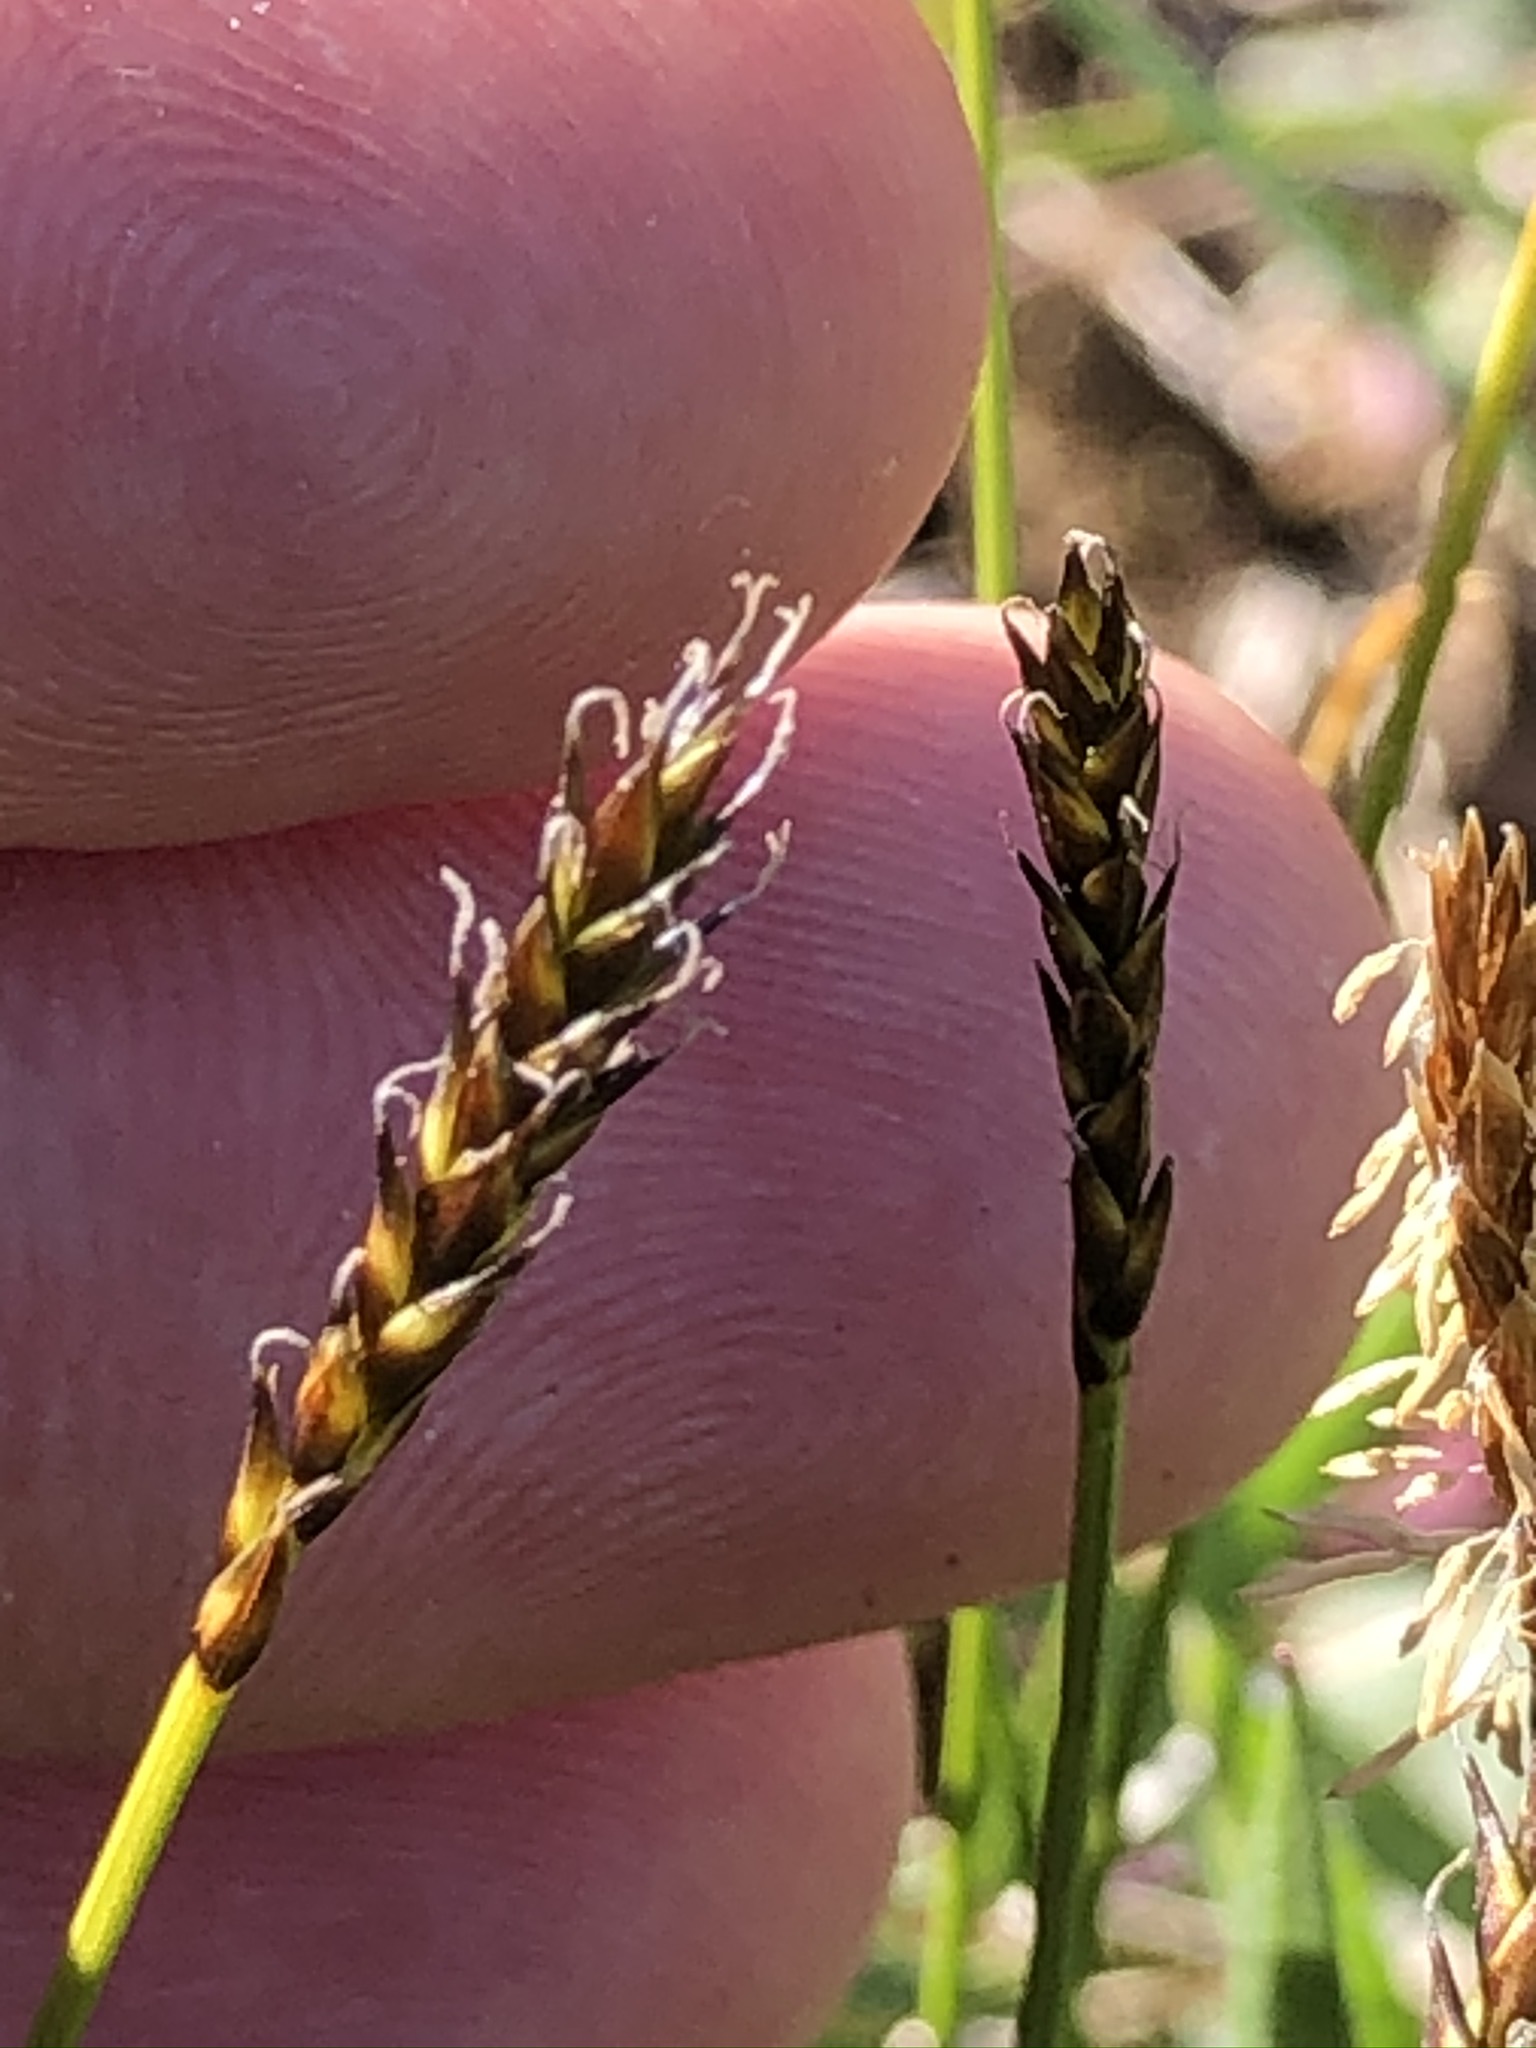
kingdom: Plantae
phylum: Tracheophyta
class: Liliopsida
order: Poales
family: Cyperaceae
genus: Carex
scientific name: Carex davalliana
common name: Davall's sedge
